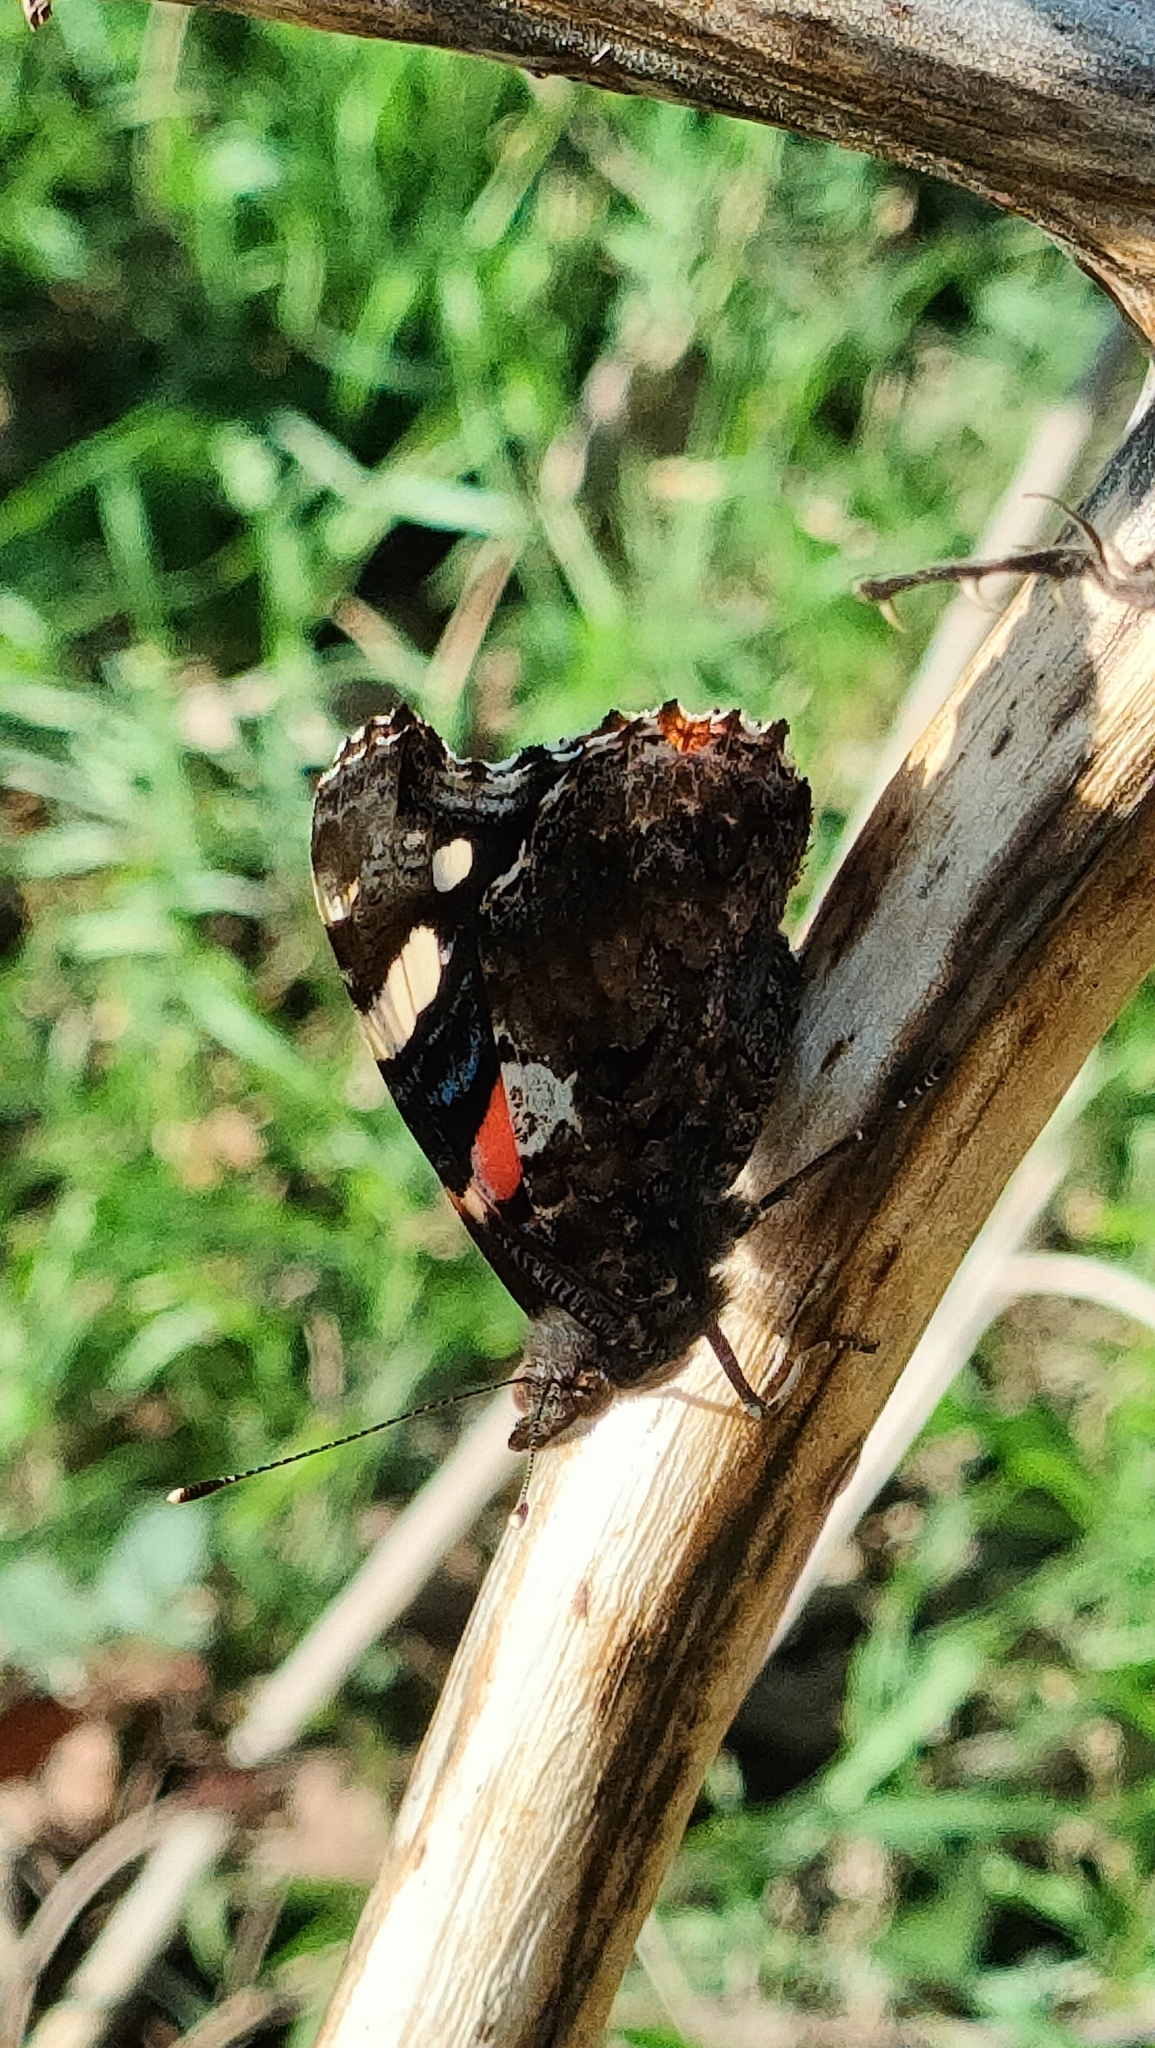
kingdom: Animalia
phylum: Arthropoda
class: Insecta
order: Lepidoptera
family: Nymphalidae
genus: Vanessa
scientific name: Vanessa atalanta
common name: Red admiral
